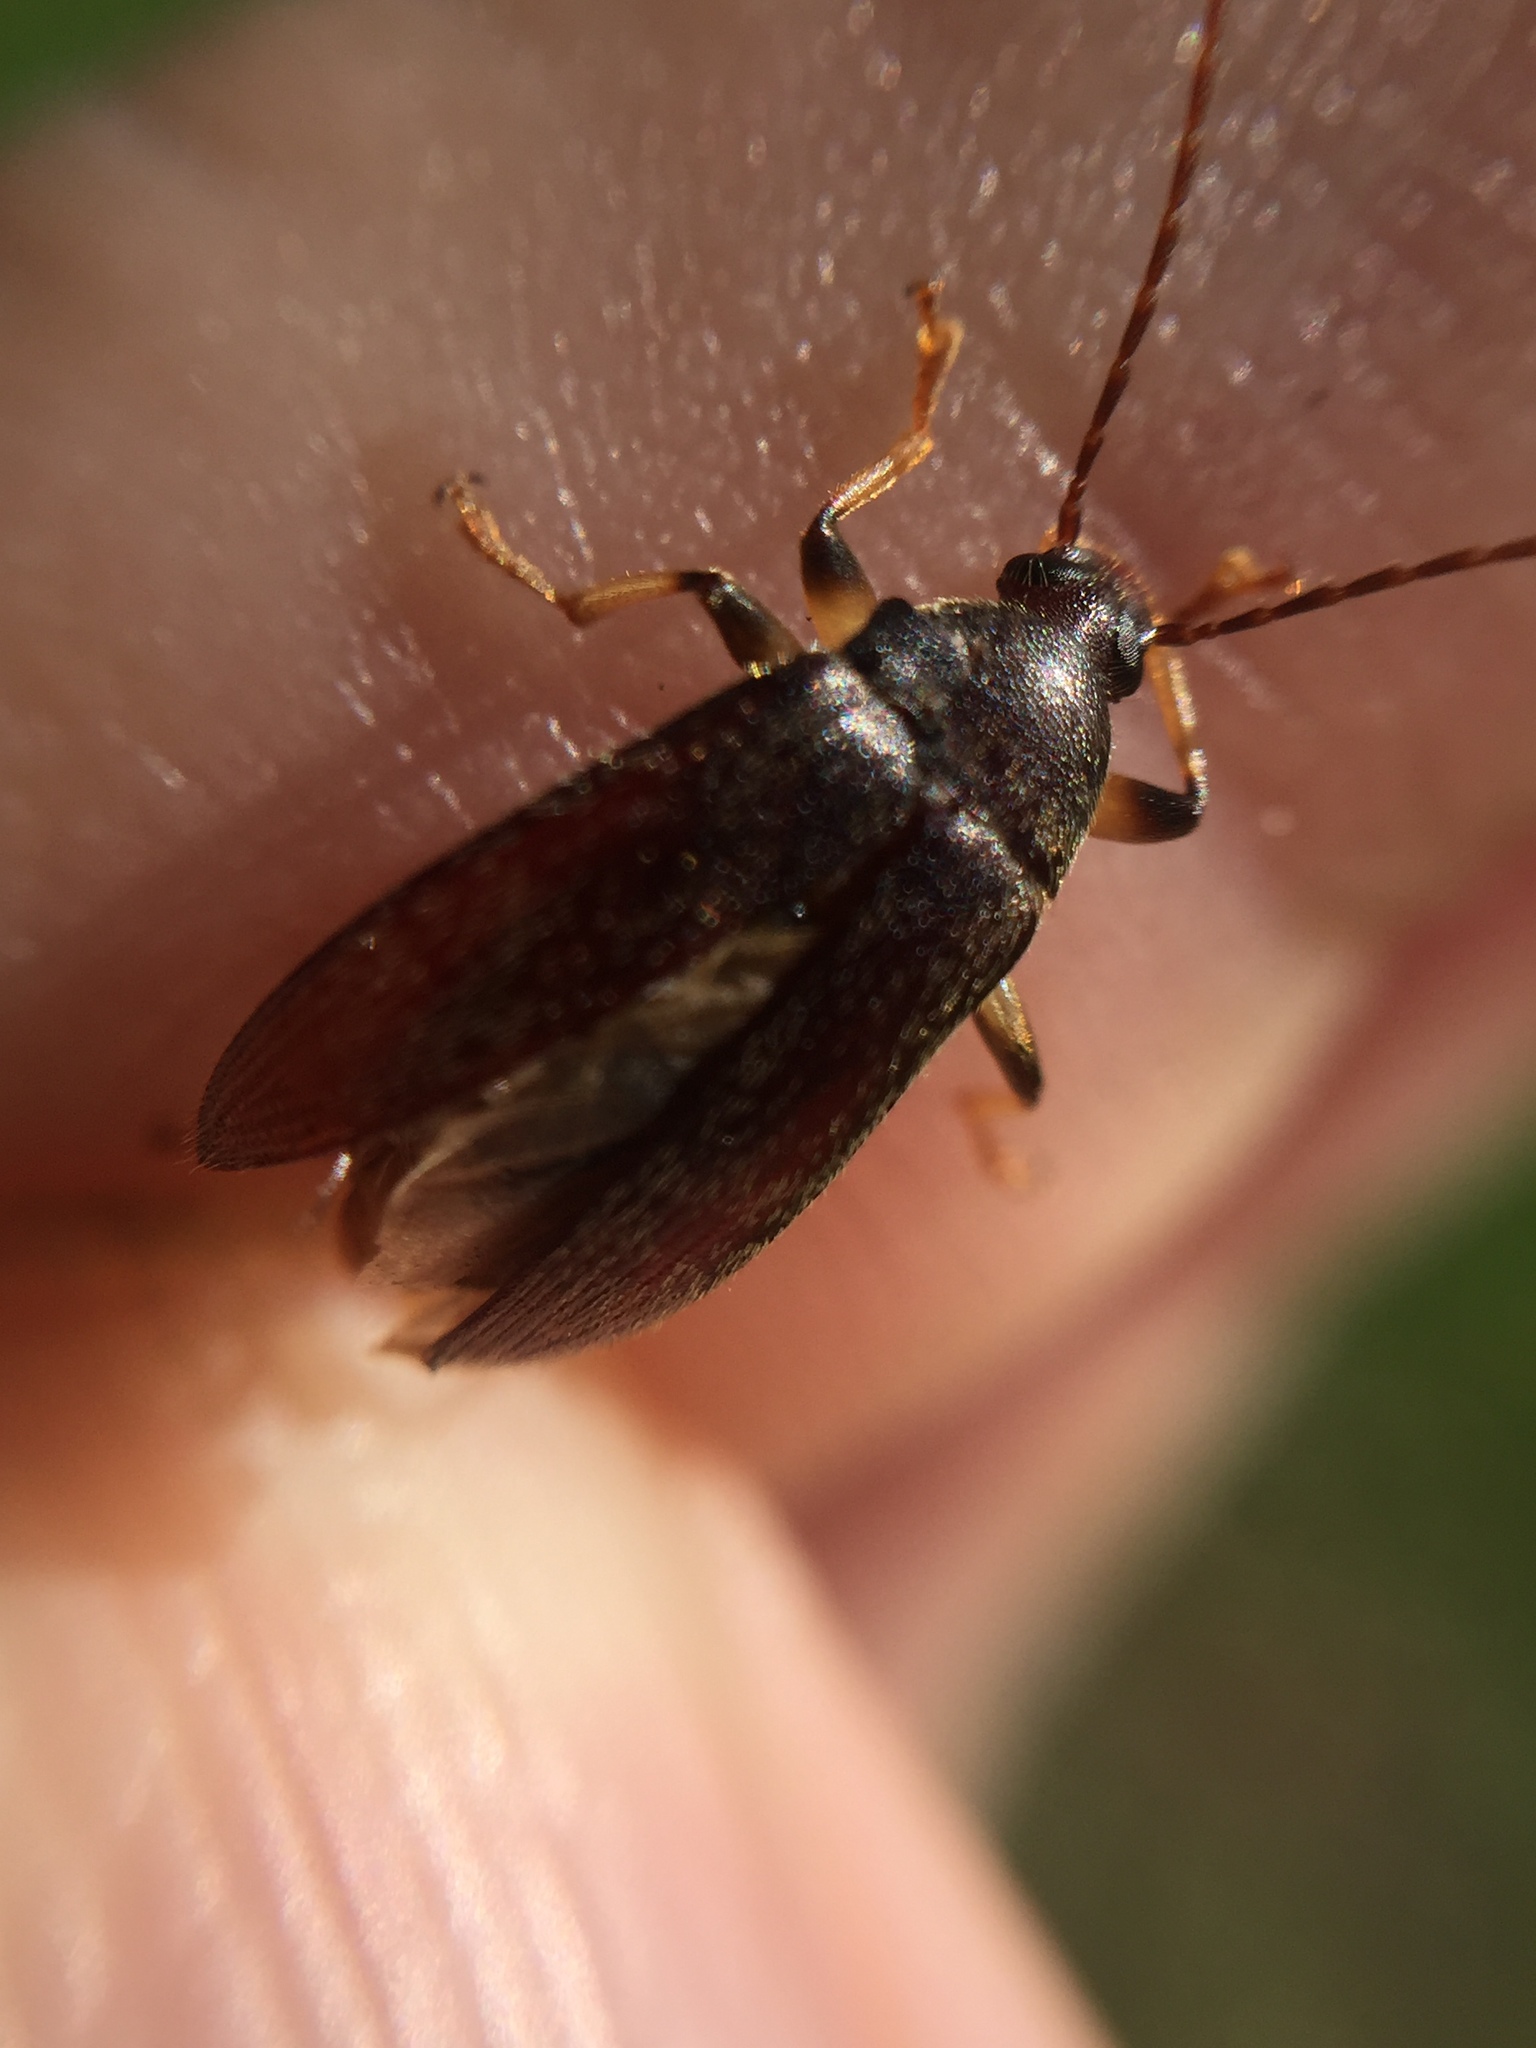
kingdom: Animalia
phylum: Arthropoda
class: Insecta
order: Coleoptera
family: Tenebrionidae
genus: Homotrysis
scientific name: Homotrysis
